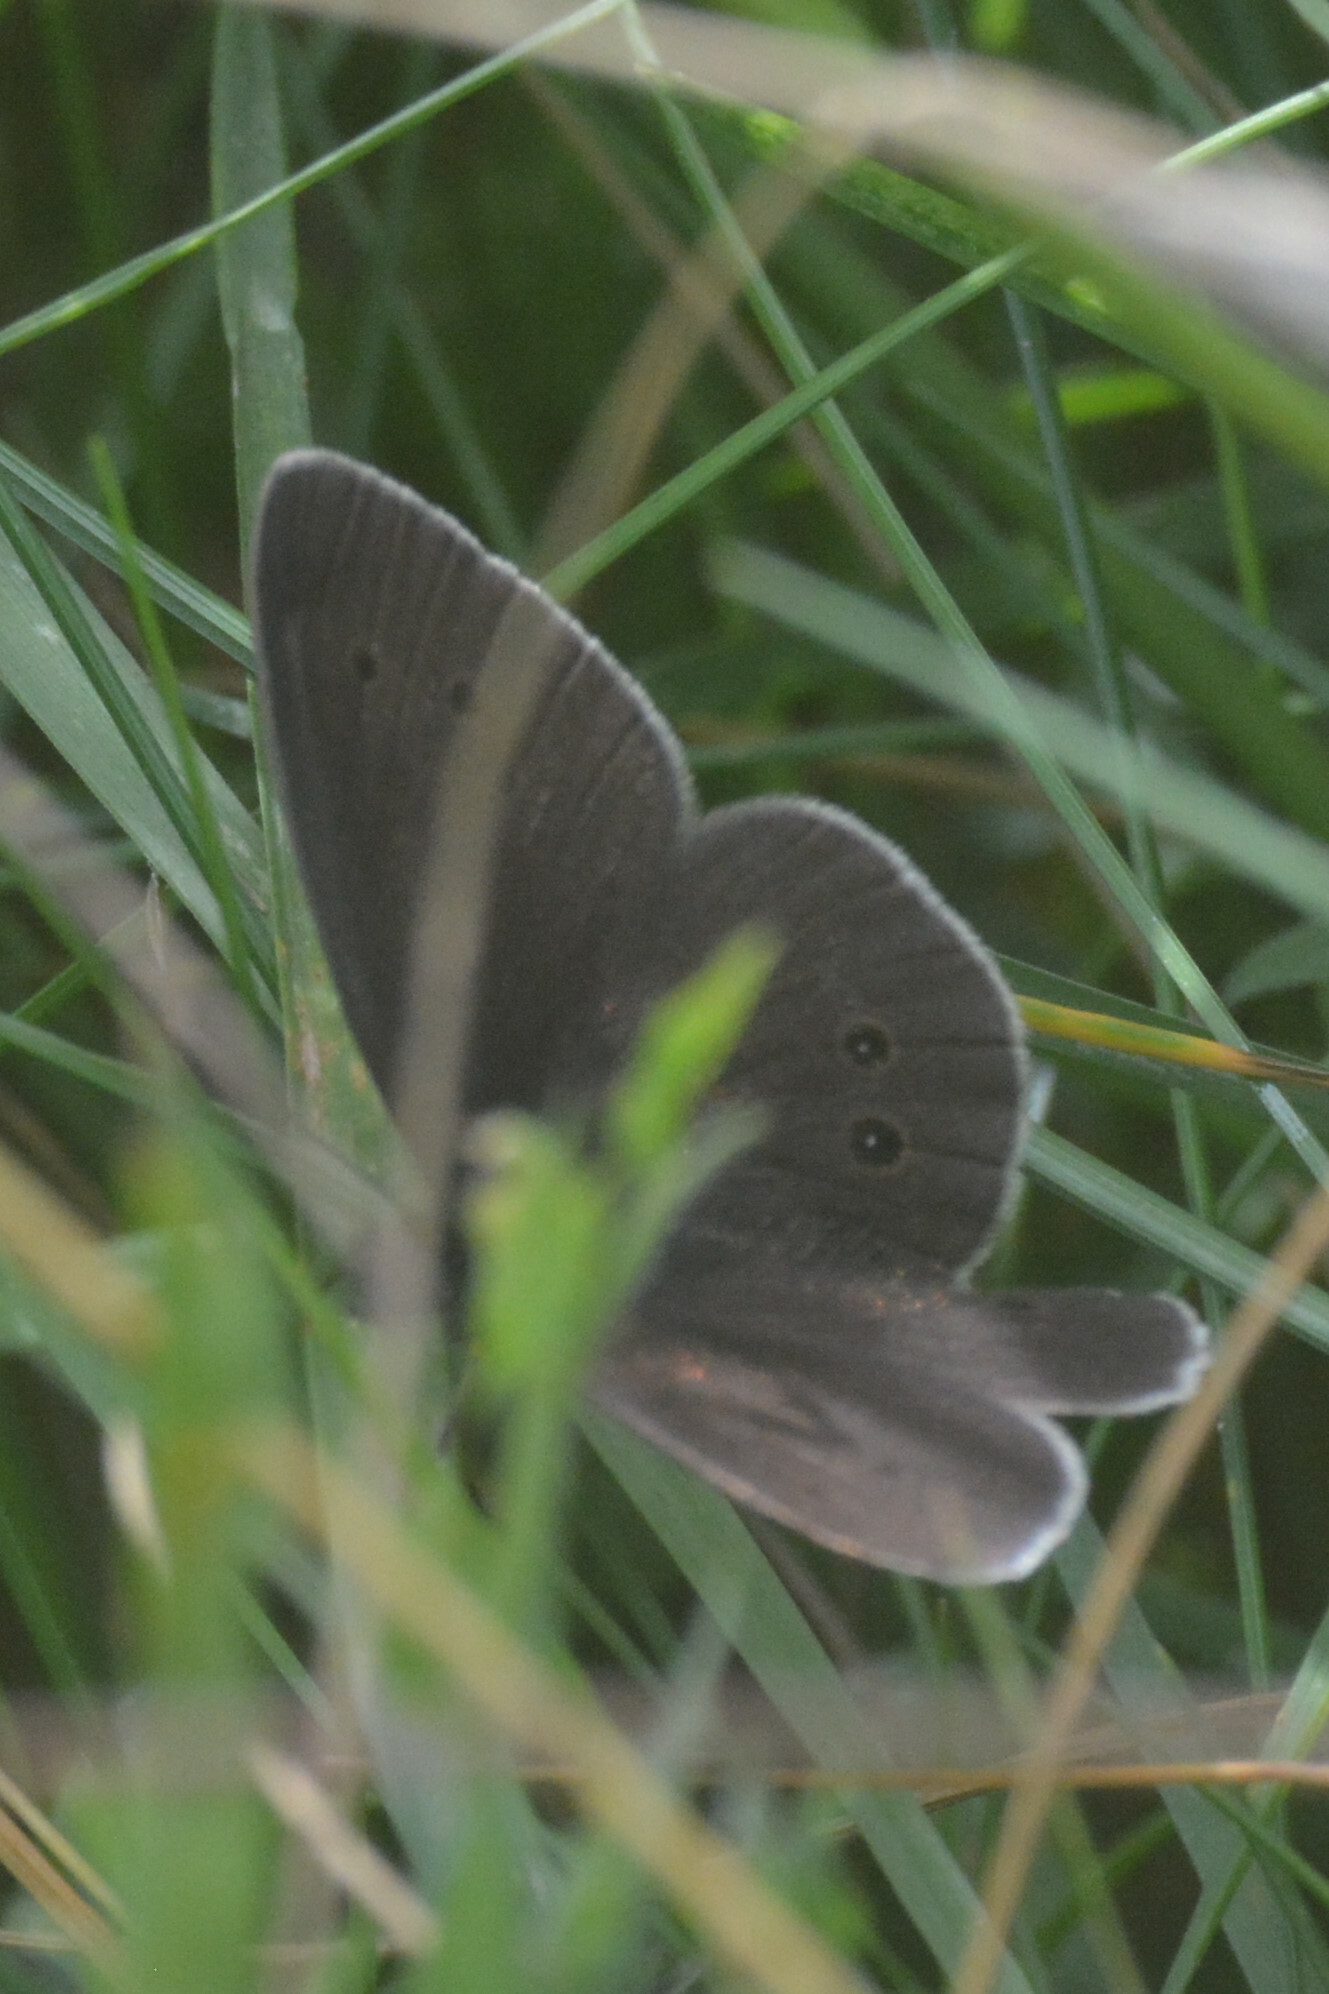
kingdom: Animalia
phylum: Arthropoda
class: Insecta
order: Lepidoptera
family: Nymphalidae
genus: Aphantopus
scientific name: Aphantopus hyperantus
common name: Ringlet
